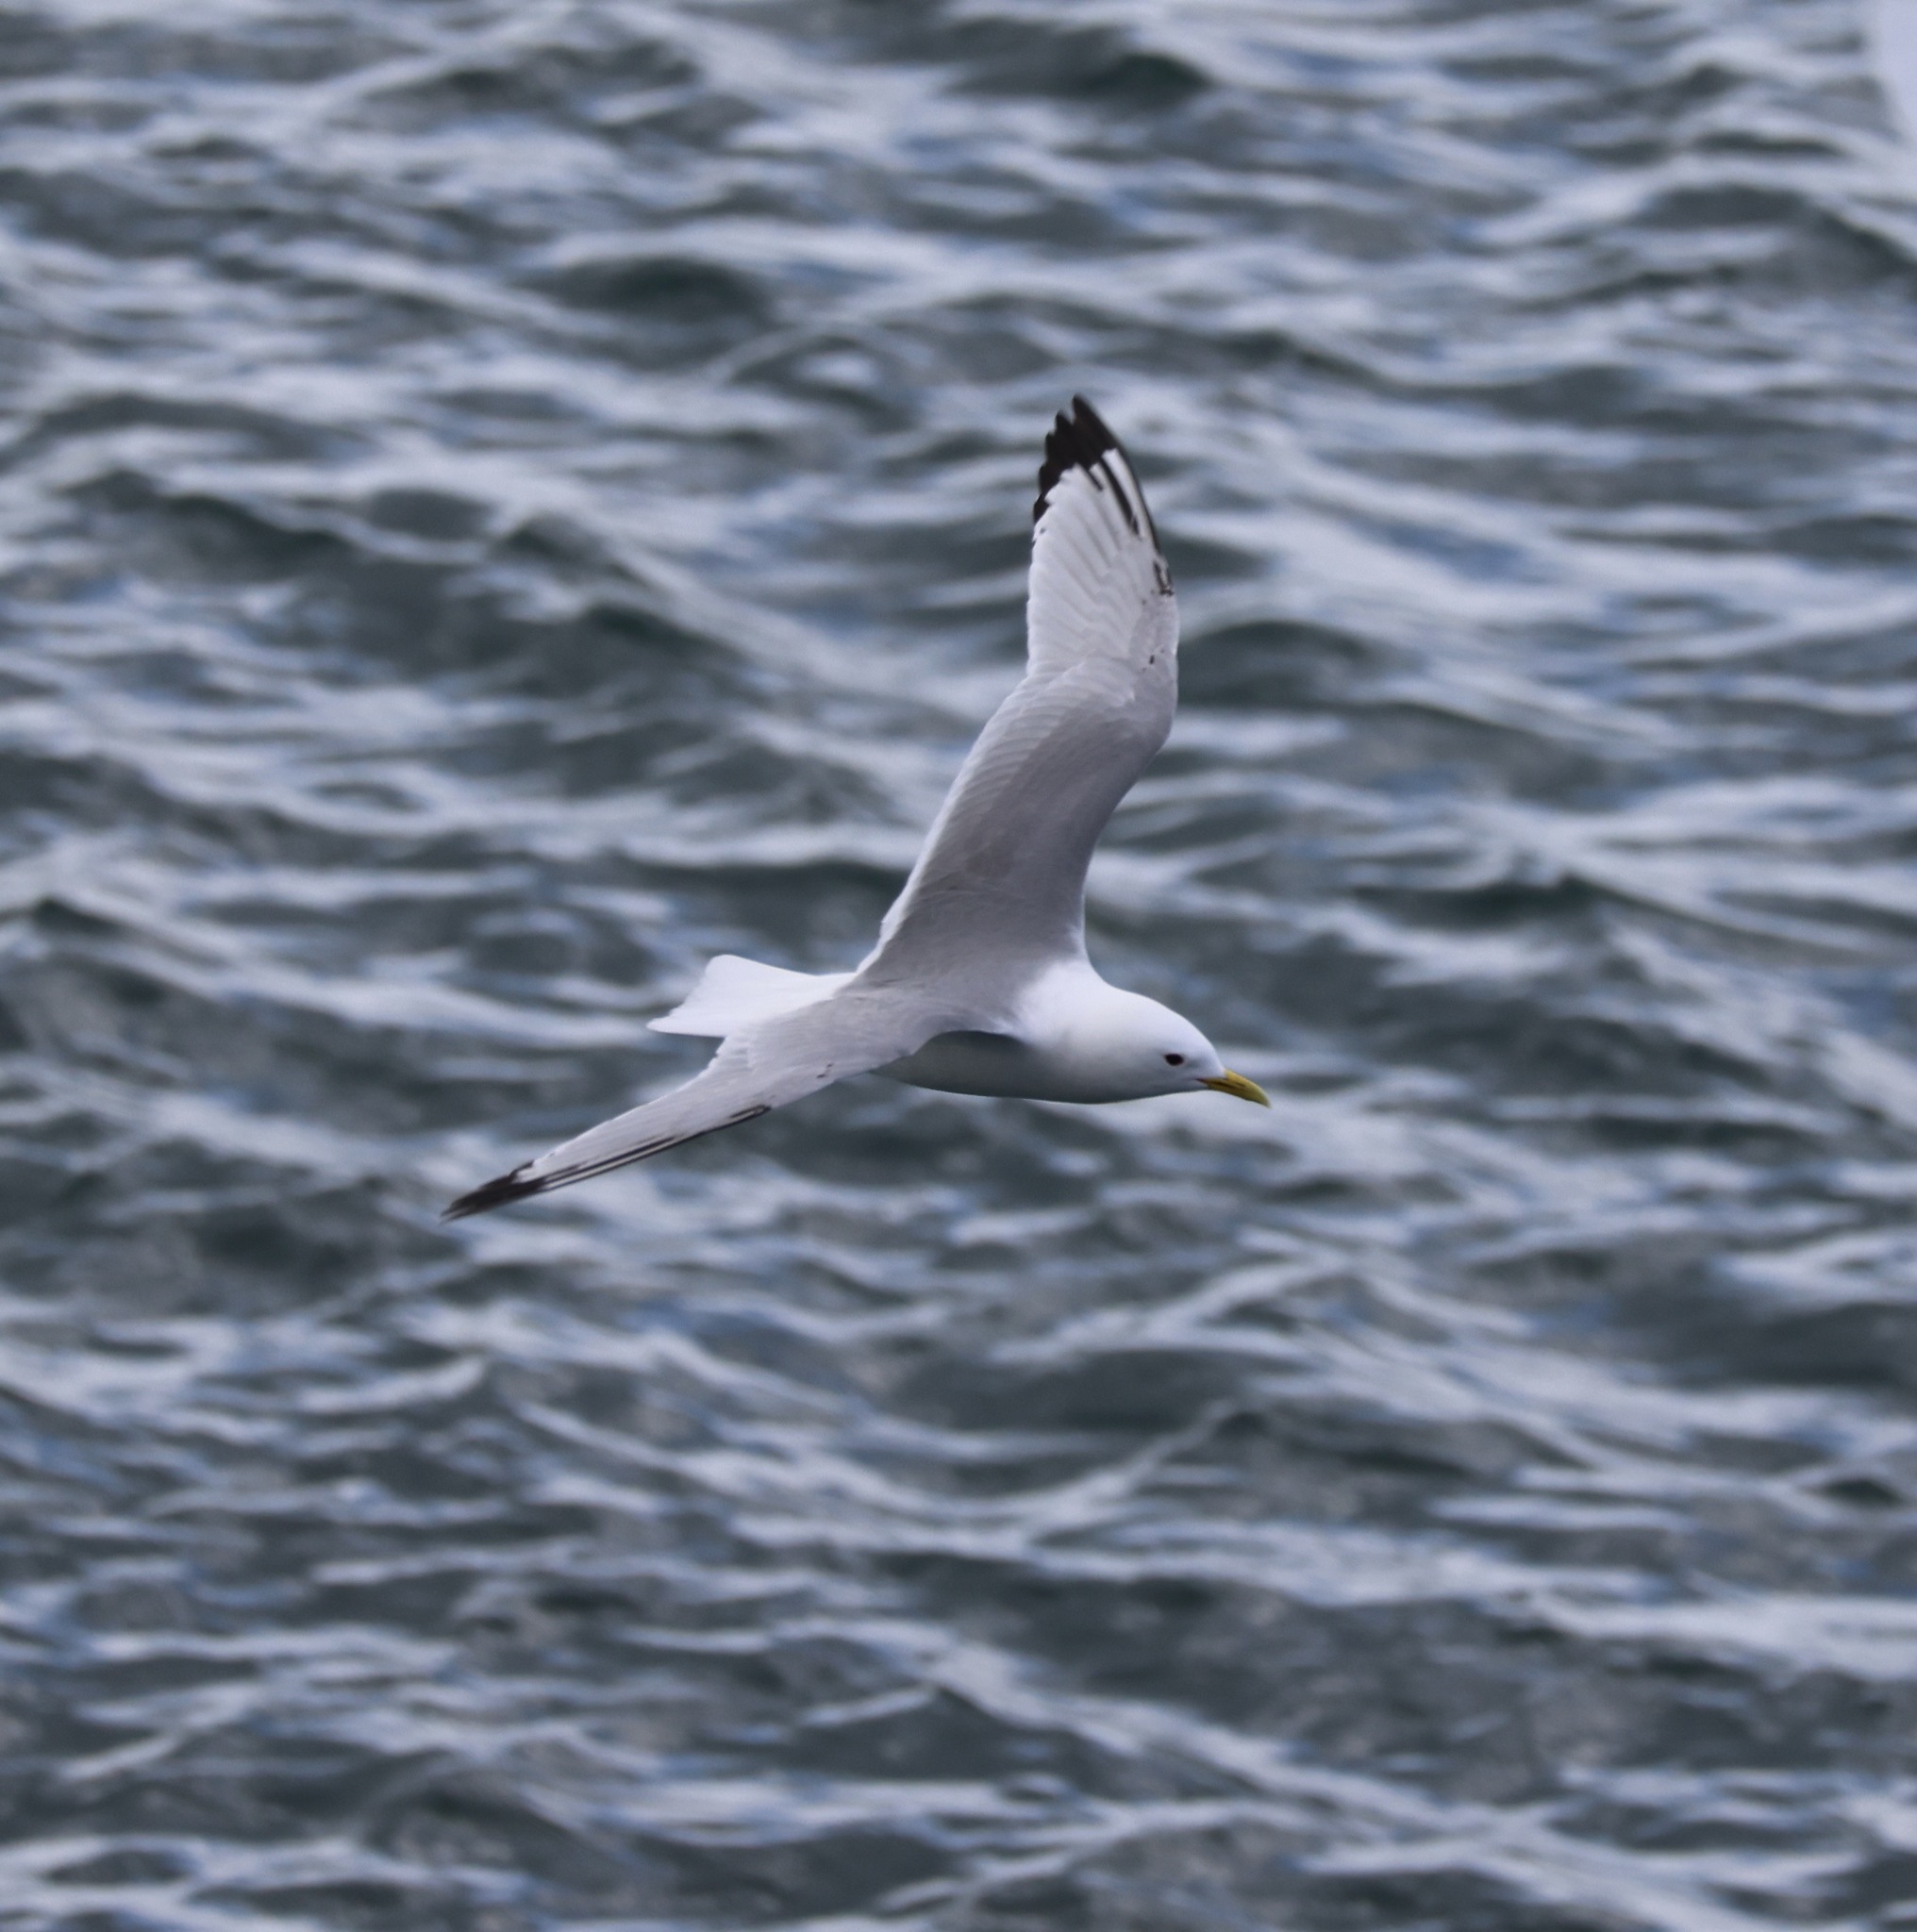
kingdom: Animalia
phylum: Chordata
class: Aves
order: Charadriiformes
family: Laridae
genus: Rissa
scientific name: Rissa tridactyla
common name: Black-legged kittiwake
